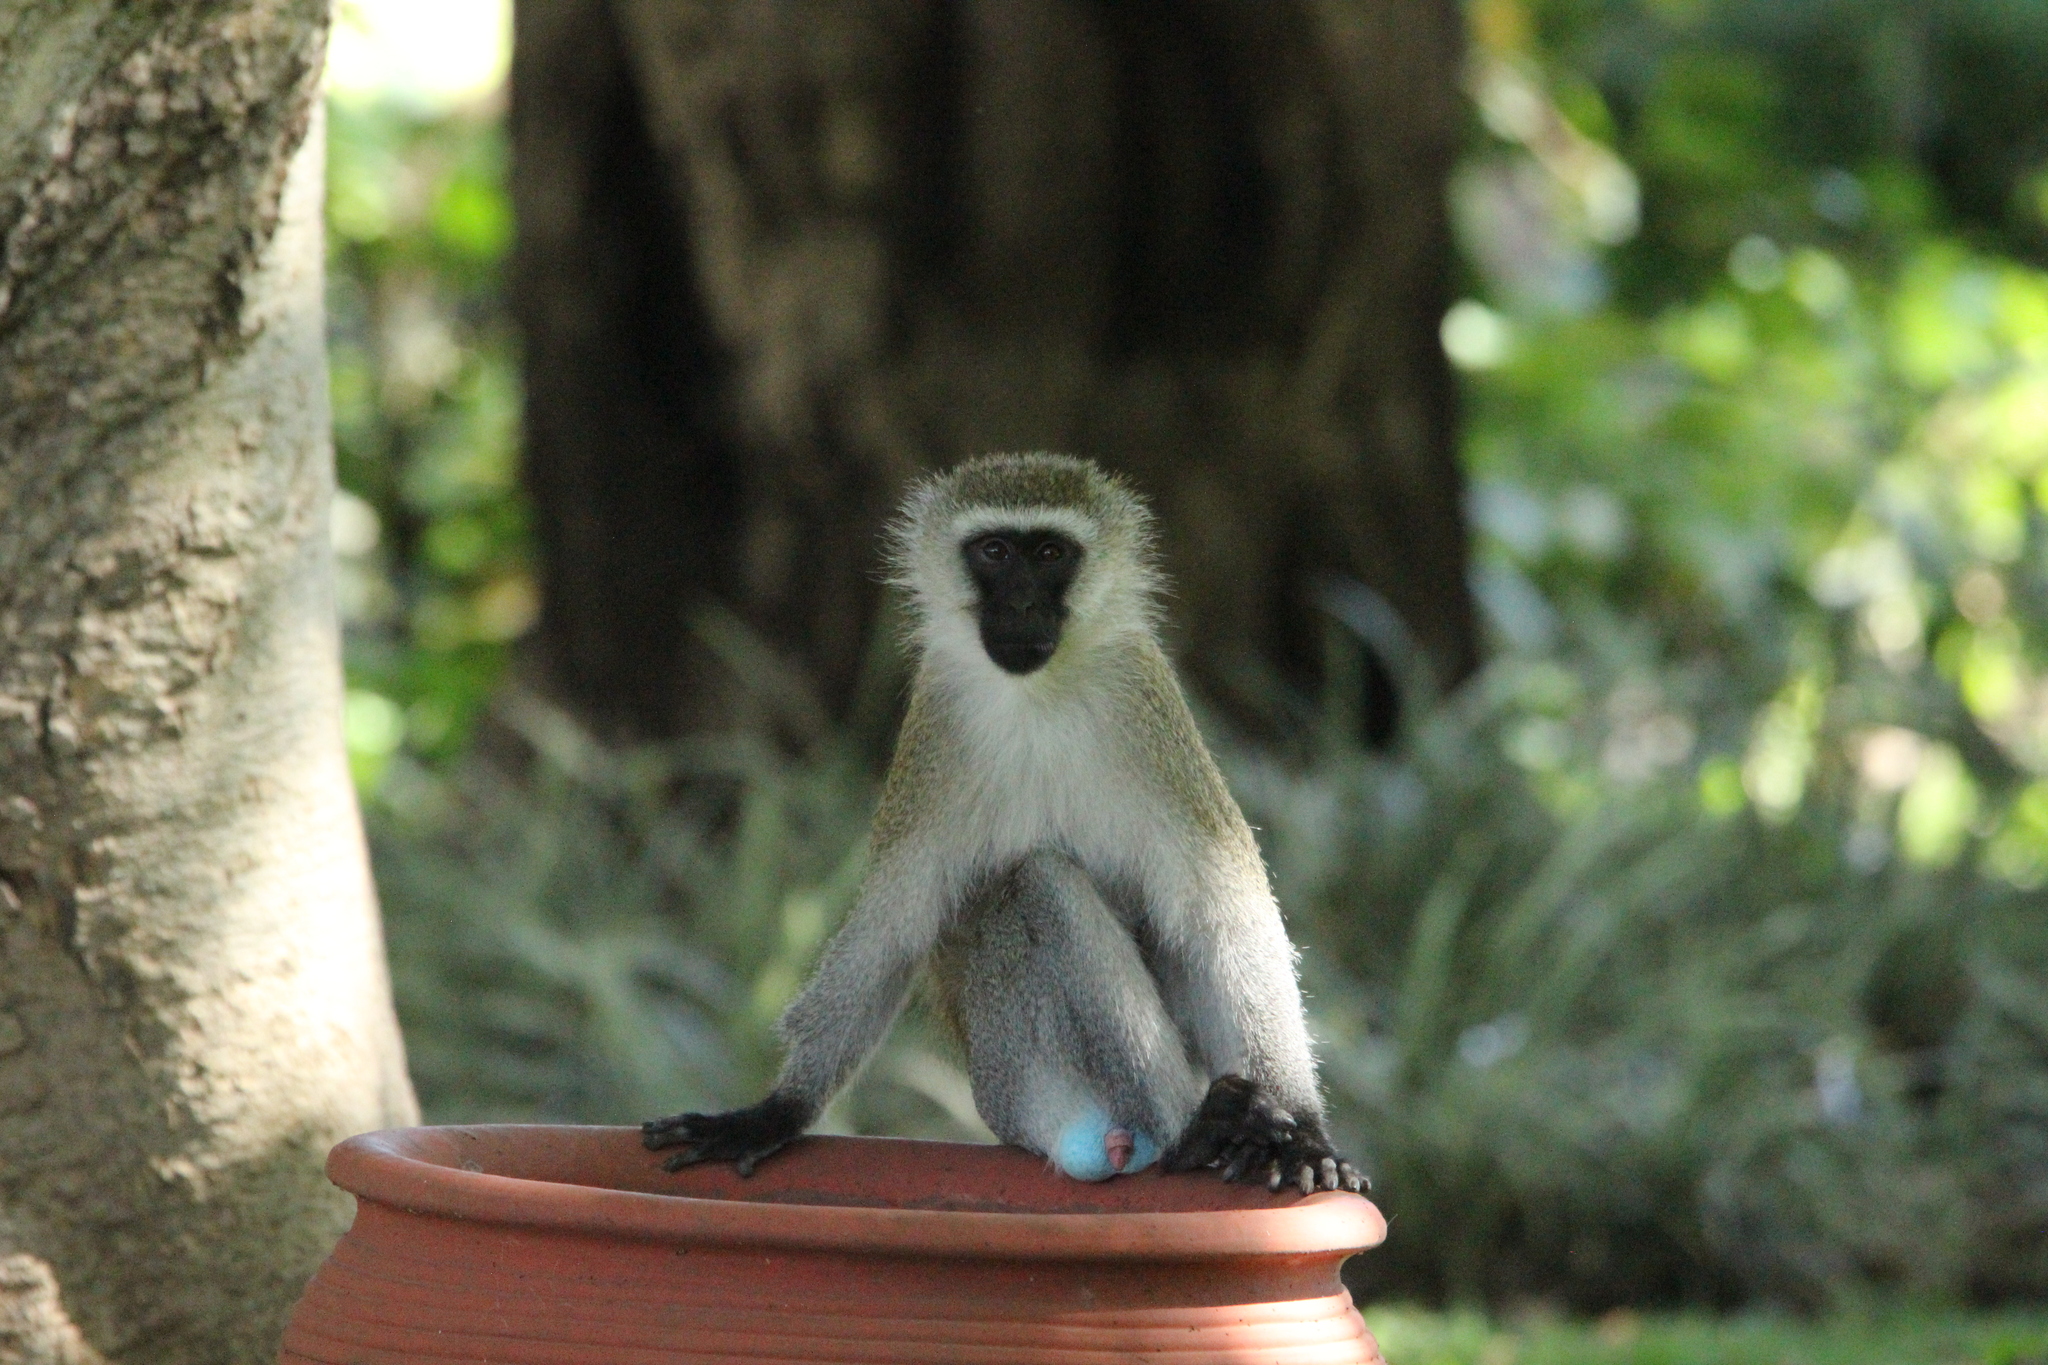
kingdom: Animalia
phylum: Chordata
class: Mammalia
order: Primates
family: Cercopithecidae
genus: Chlorocebus
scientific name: Chlorocebus pygerythrus
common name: Vervet monkey
